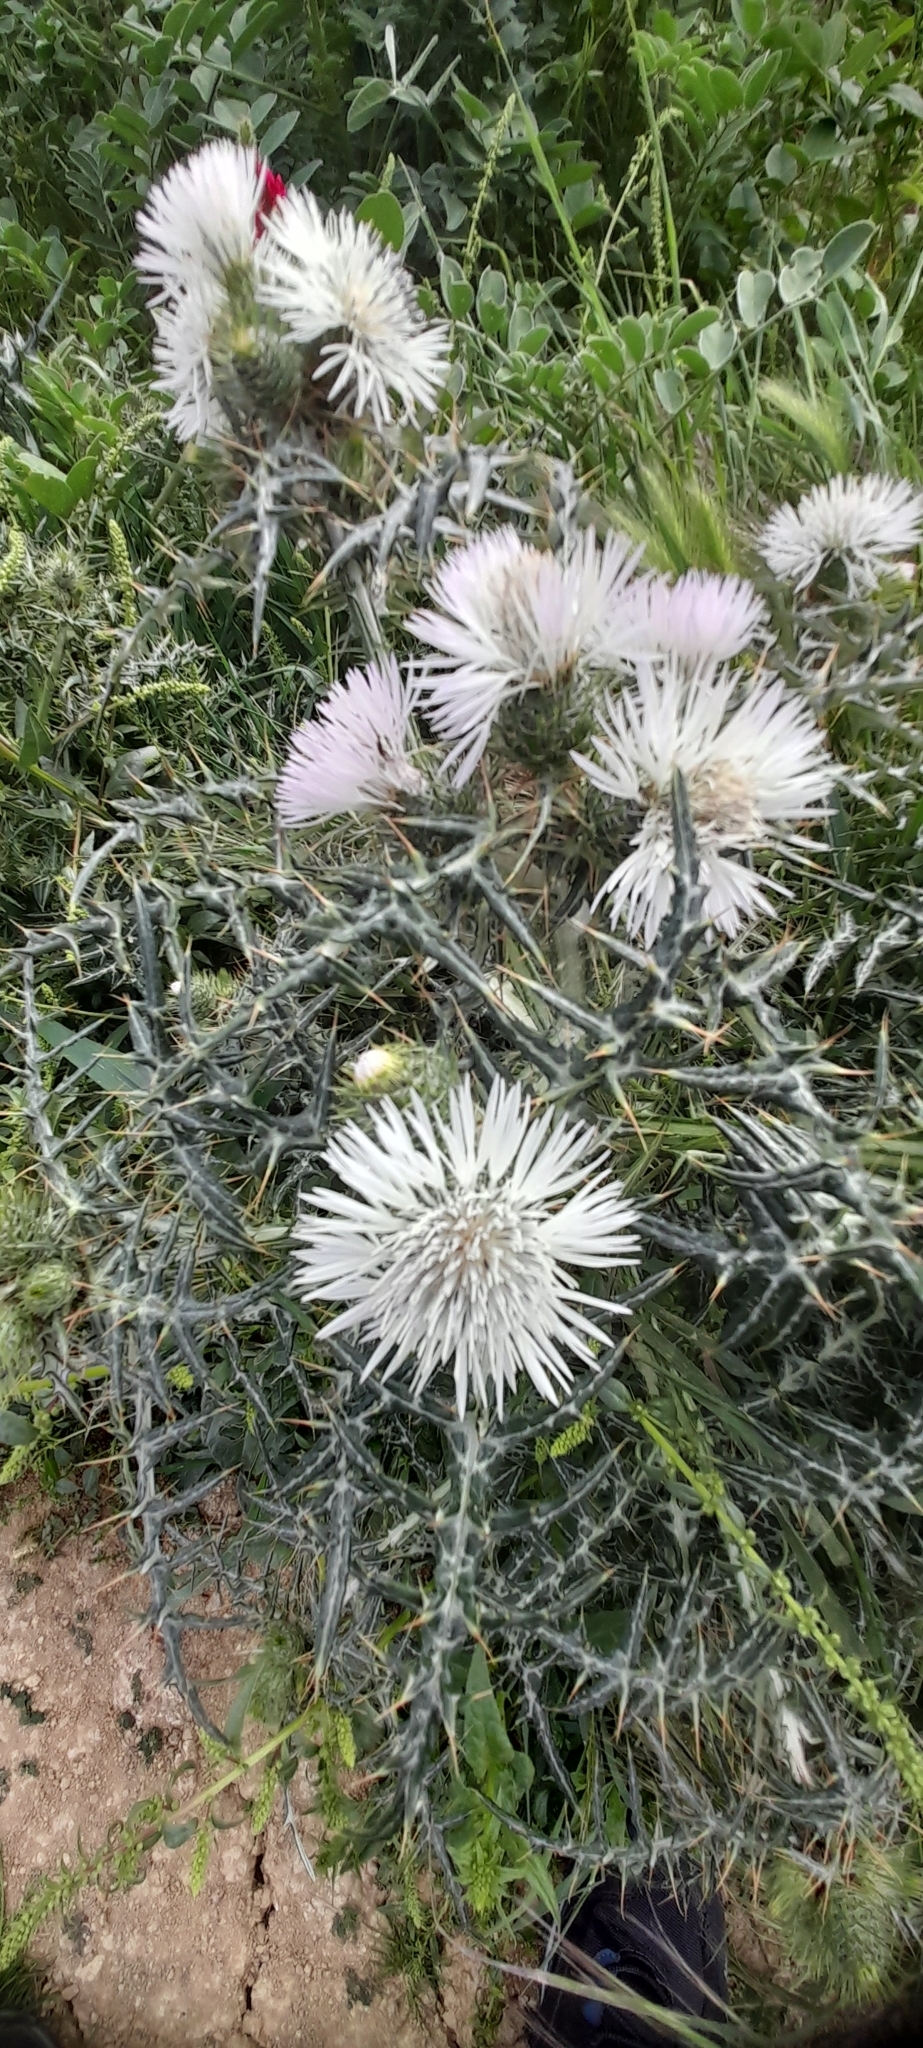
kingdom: Plantae
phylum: Tracheophyta
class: Magnoliopsida
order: Asterales
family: Asteraceae
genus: Galactites
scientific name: Galactites tomentosa
